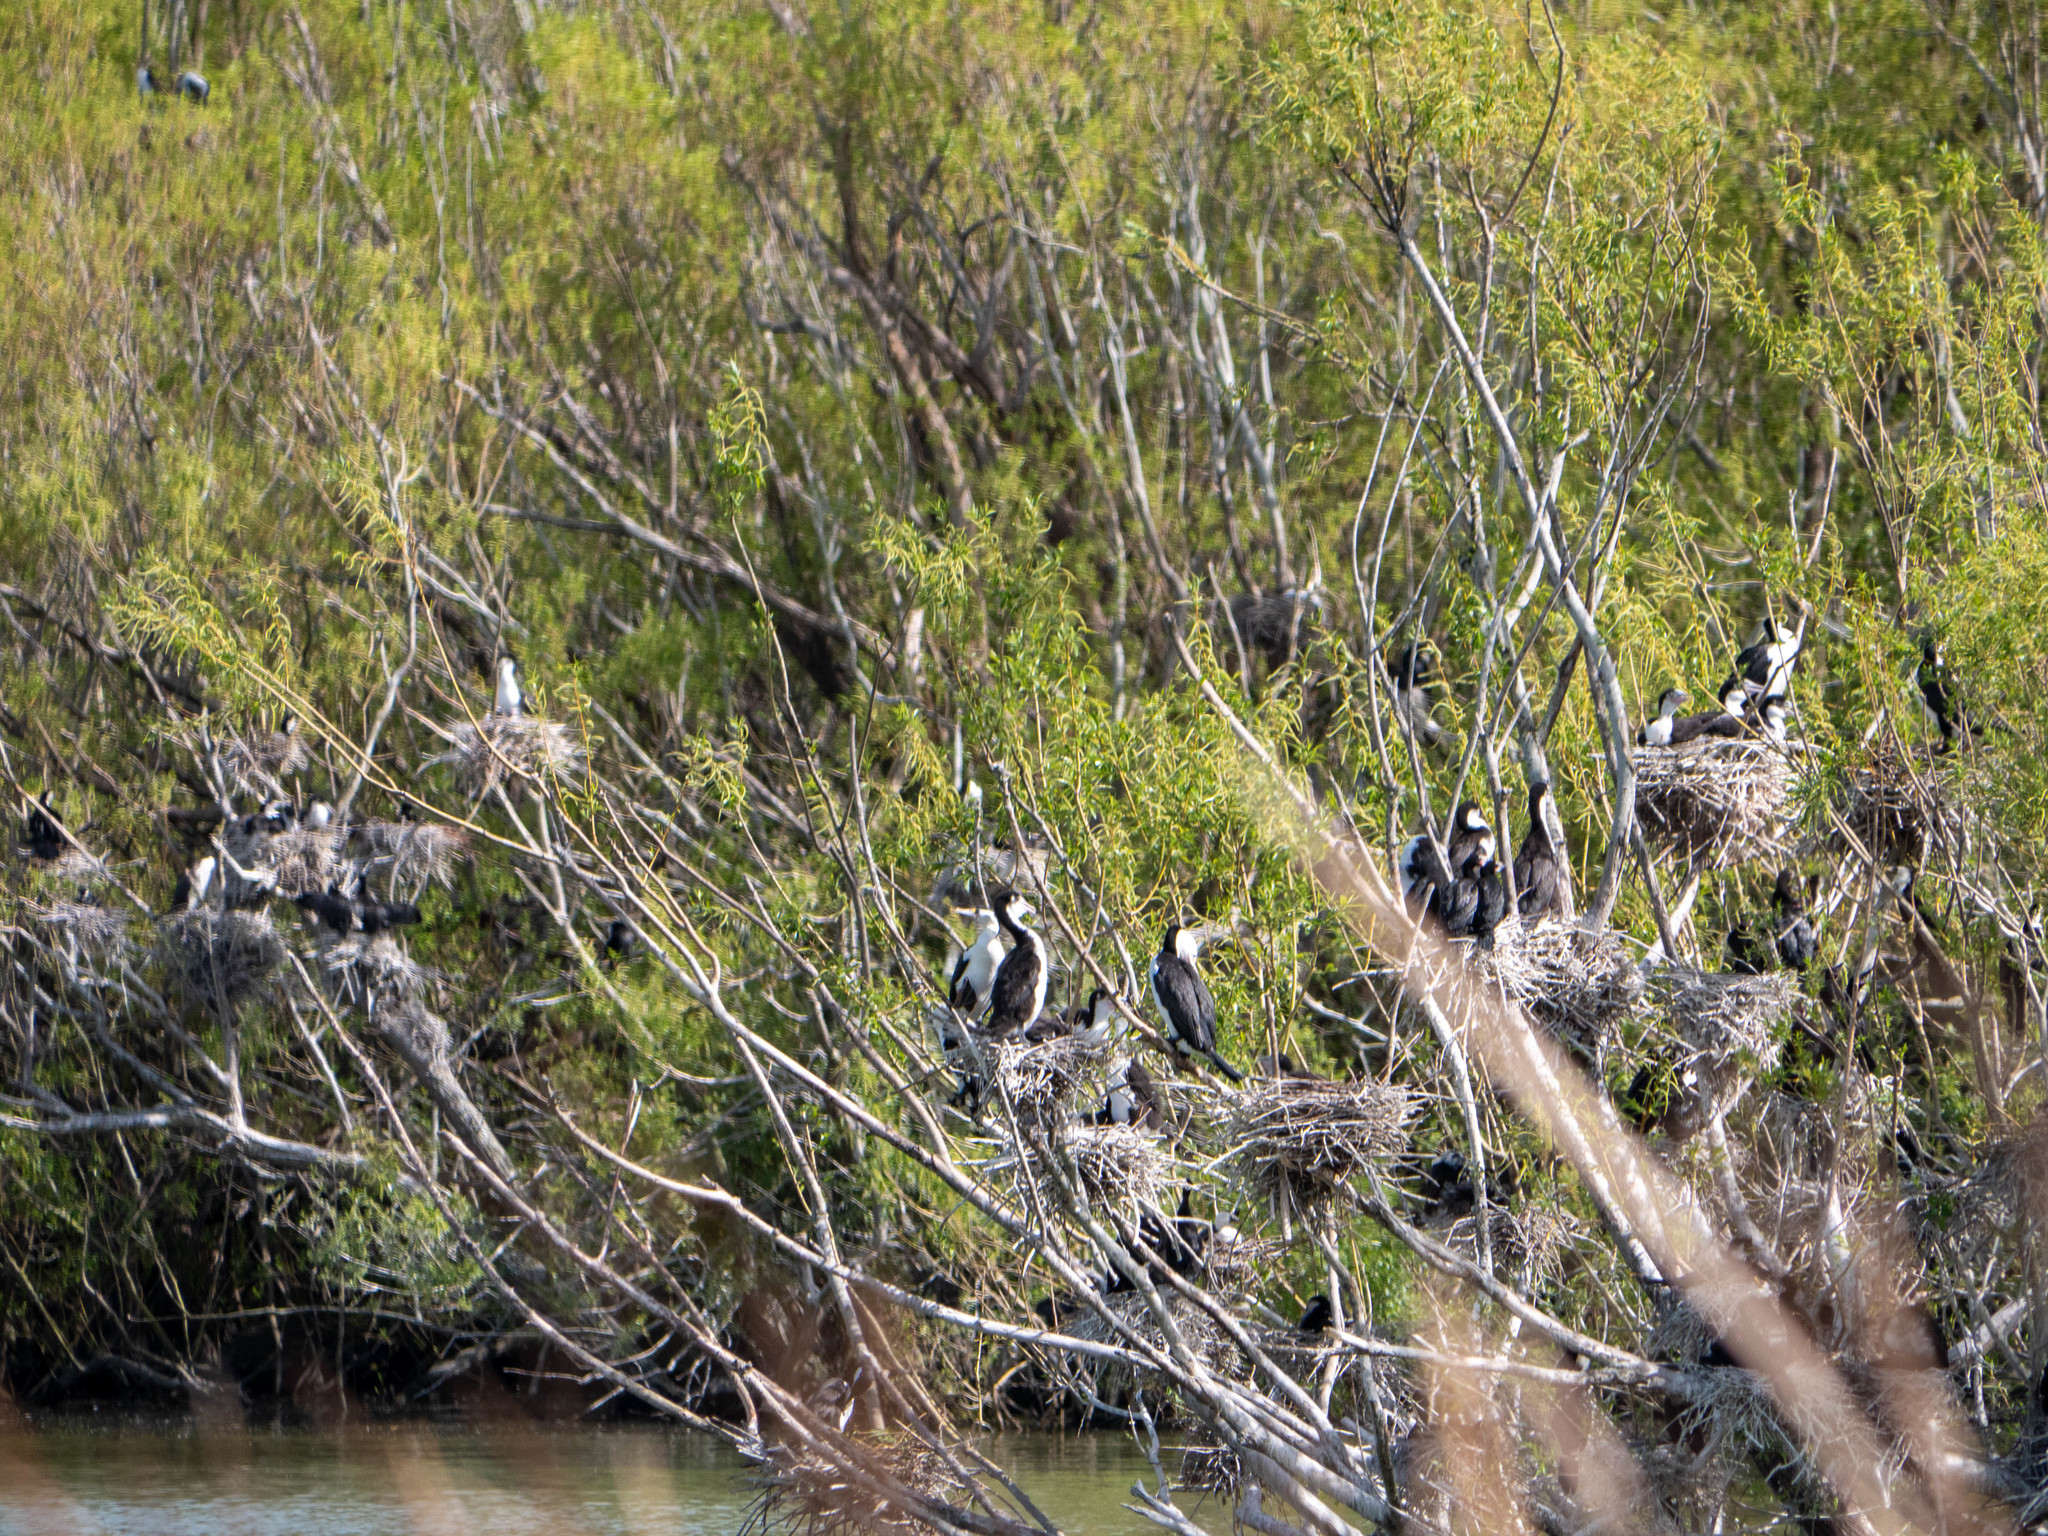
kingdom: Animalia
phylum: Chordata
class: Aves
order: Suliformes
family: Phalacrocoracidae
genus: Phalacrocorax
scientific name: Phalacrocorax varius
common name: Pied cormorant
